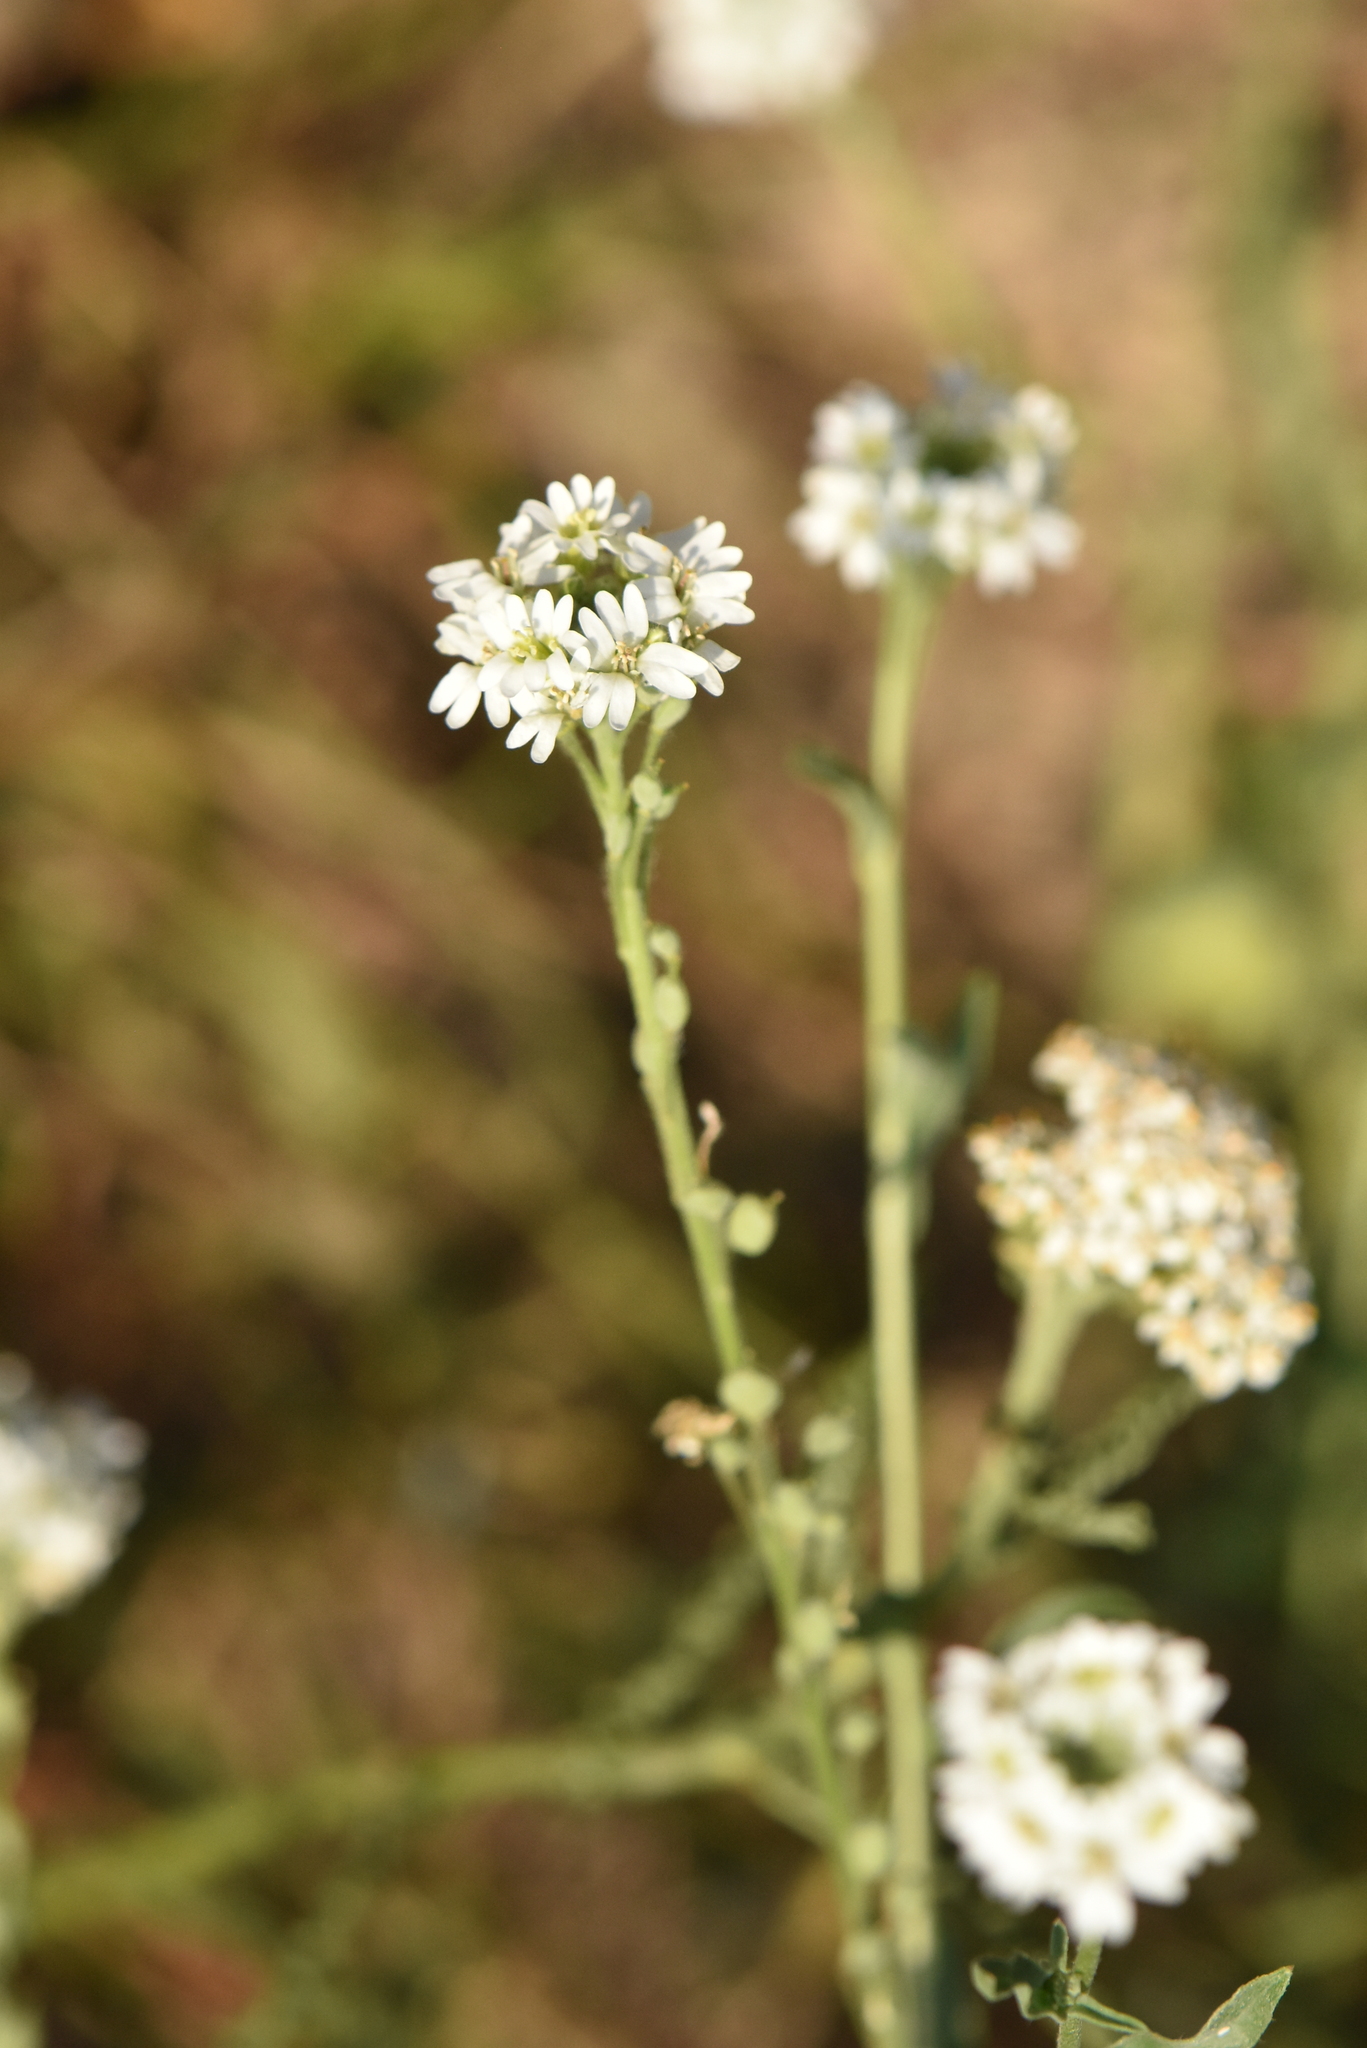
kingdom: Plantae
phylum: Tracheophyta
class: Magnoliopsida
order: Brassicales
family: Brassicaceae
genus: Berteroa
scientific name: Berteroa incana
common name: Hoary alison
